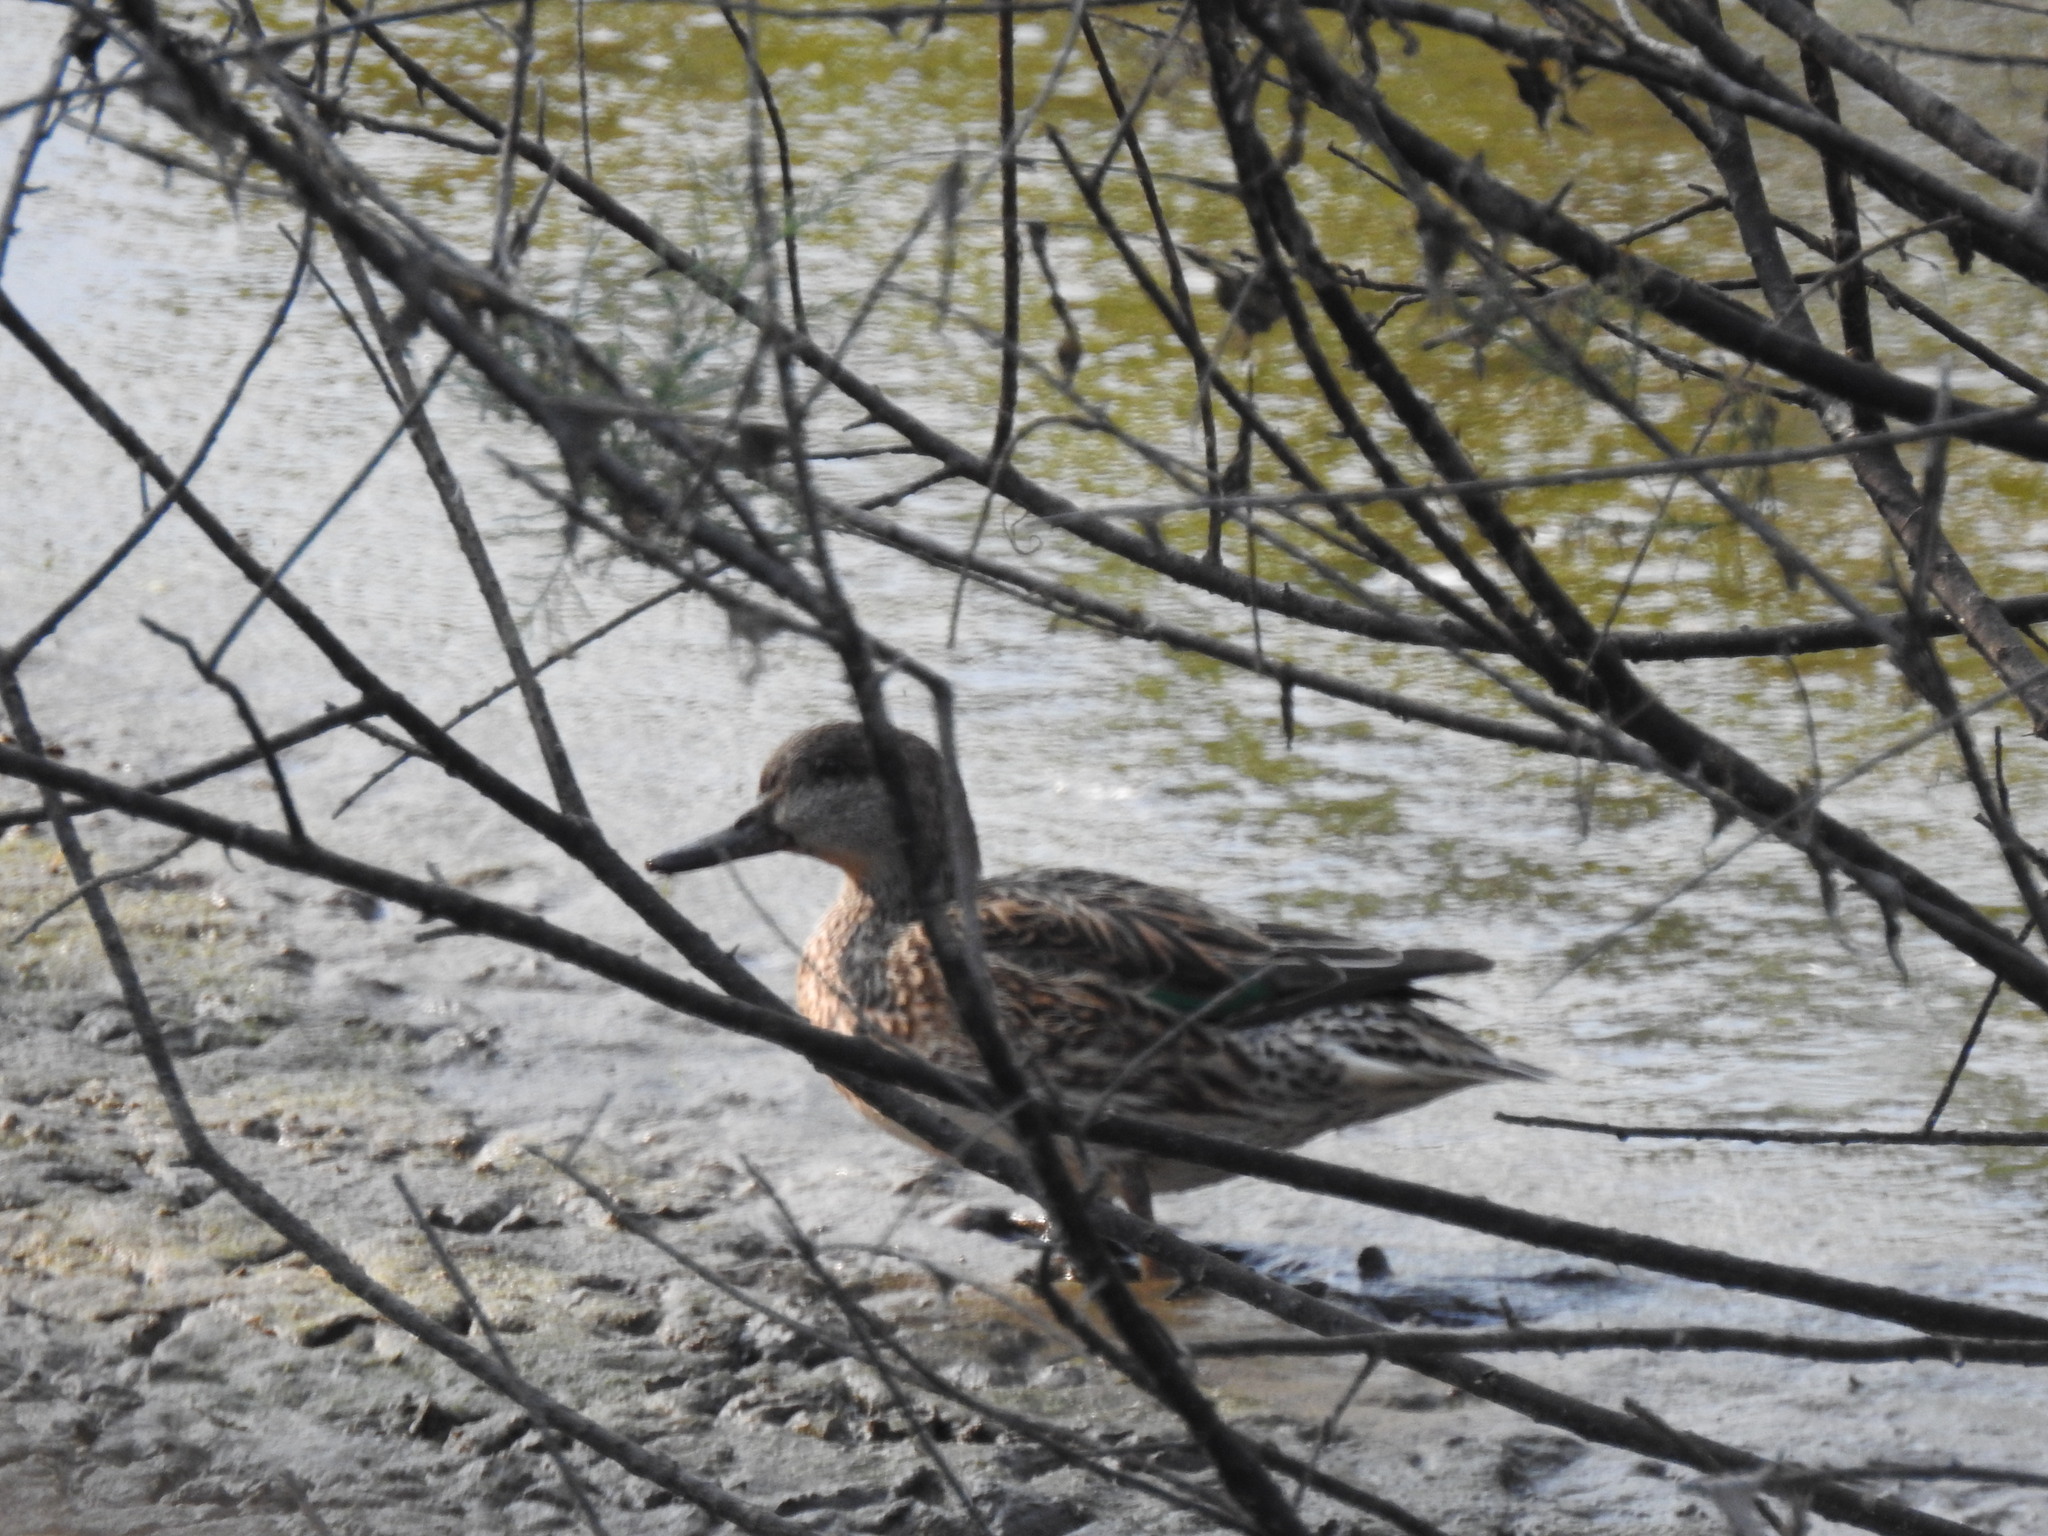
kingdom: Animalia
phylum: Chordata
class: Aves
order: Anseriformes
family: Anatidae
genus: Anas
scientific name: Anas crecca
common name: Eurasian teal
